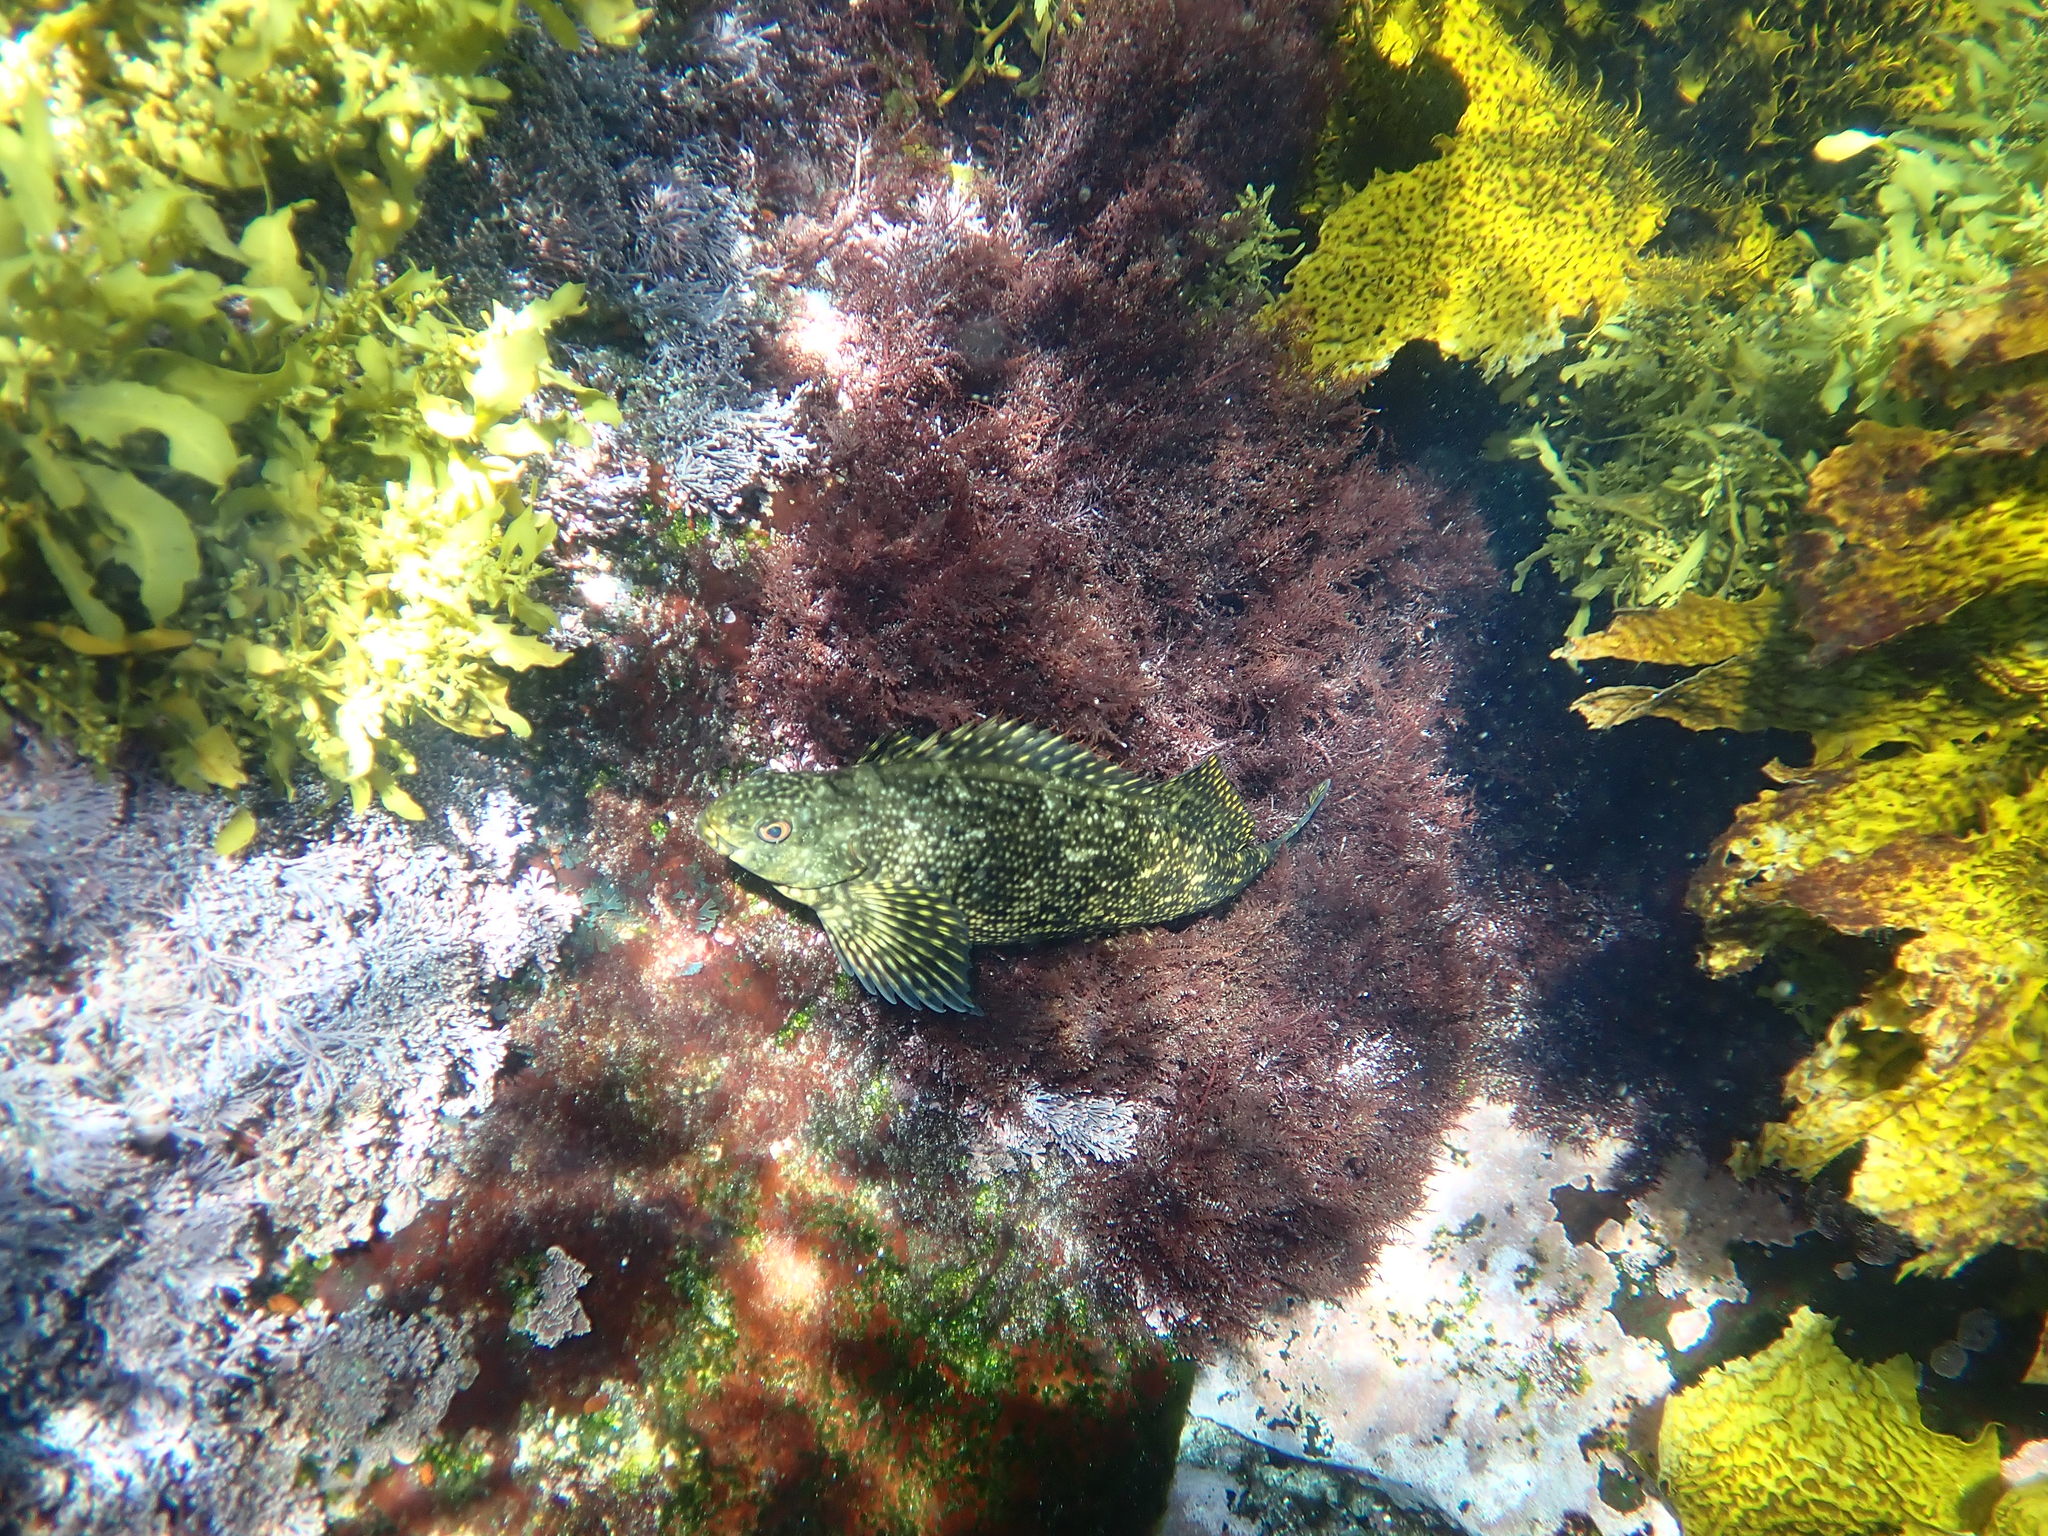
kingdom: Animalia
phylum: Chordata
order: Perciformes
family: Chironemidae
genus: Chironemus
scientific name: Chironemus marmoratus
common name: Kelpfish
